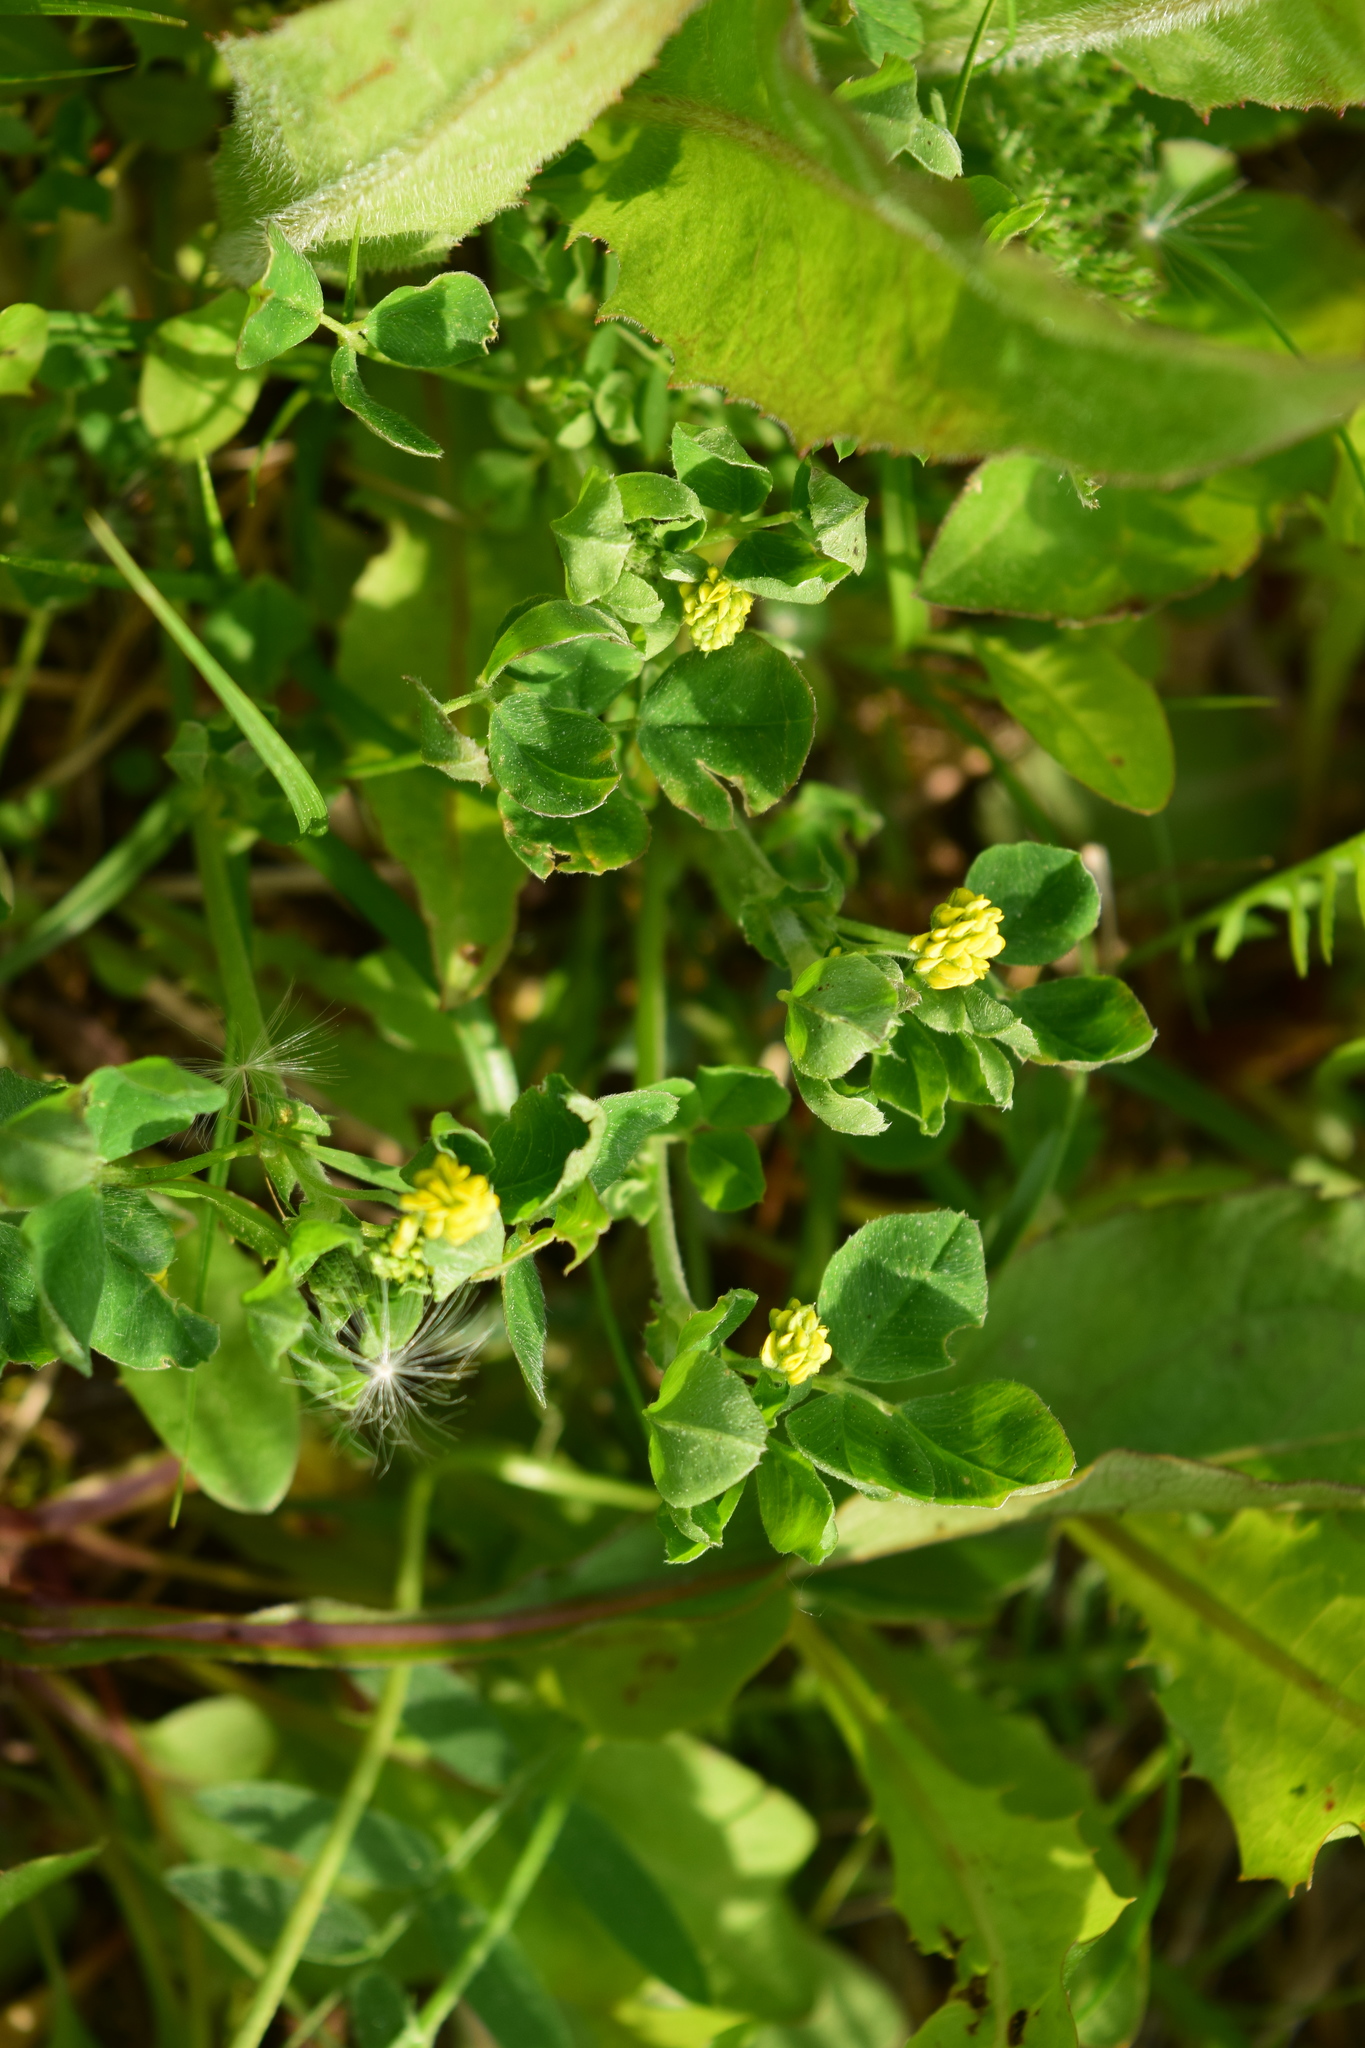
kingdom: Plantae
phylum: Tracheophyta
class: Magnoliopsida
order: Fabales
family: Fabaceae
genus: Medicago
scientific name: Medicago lupulina
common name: Black medick
